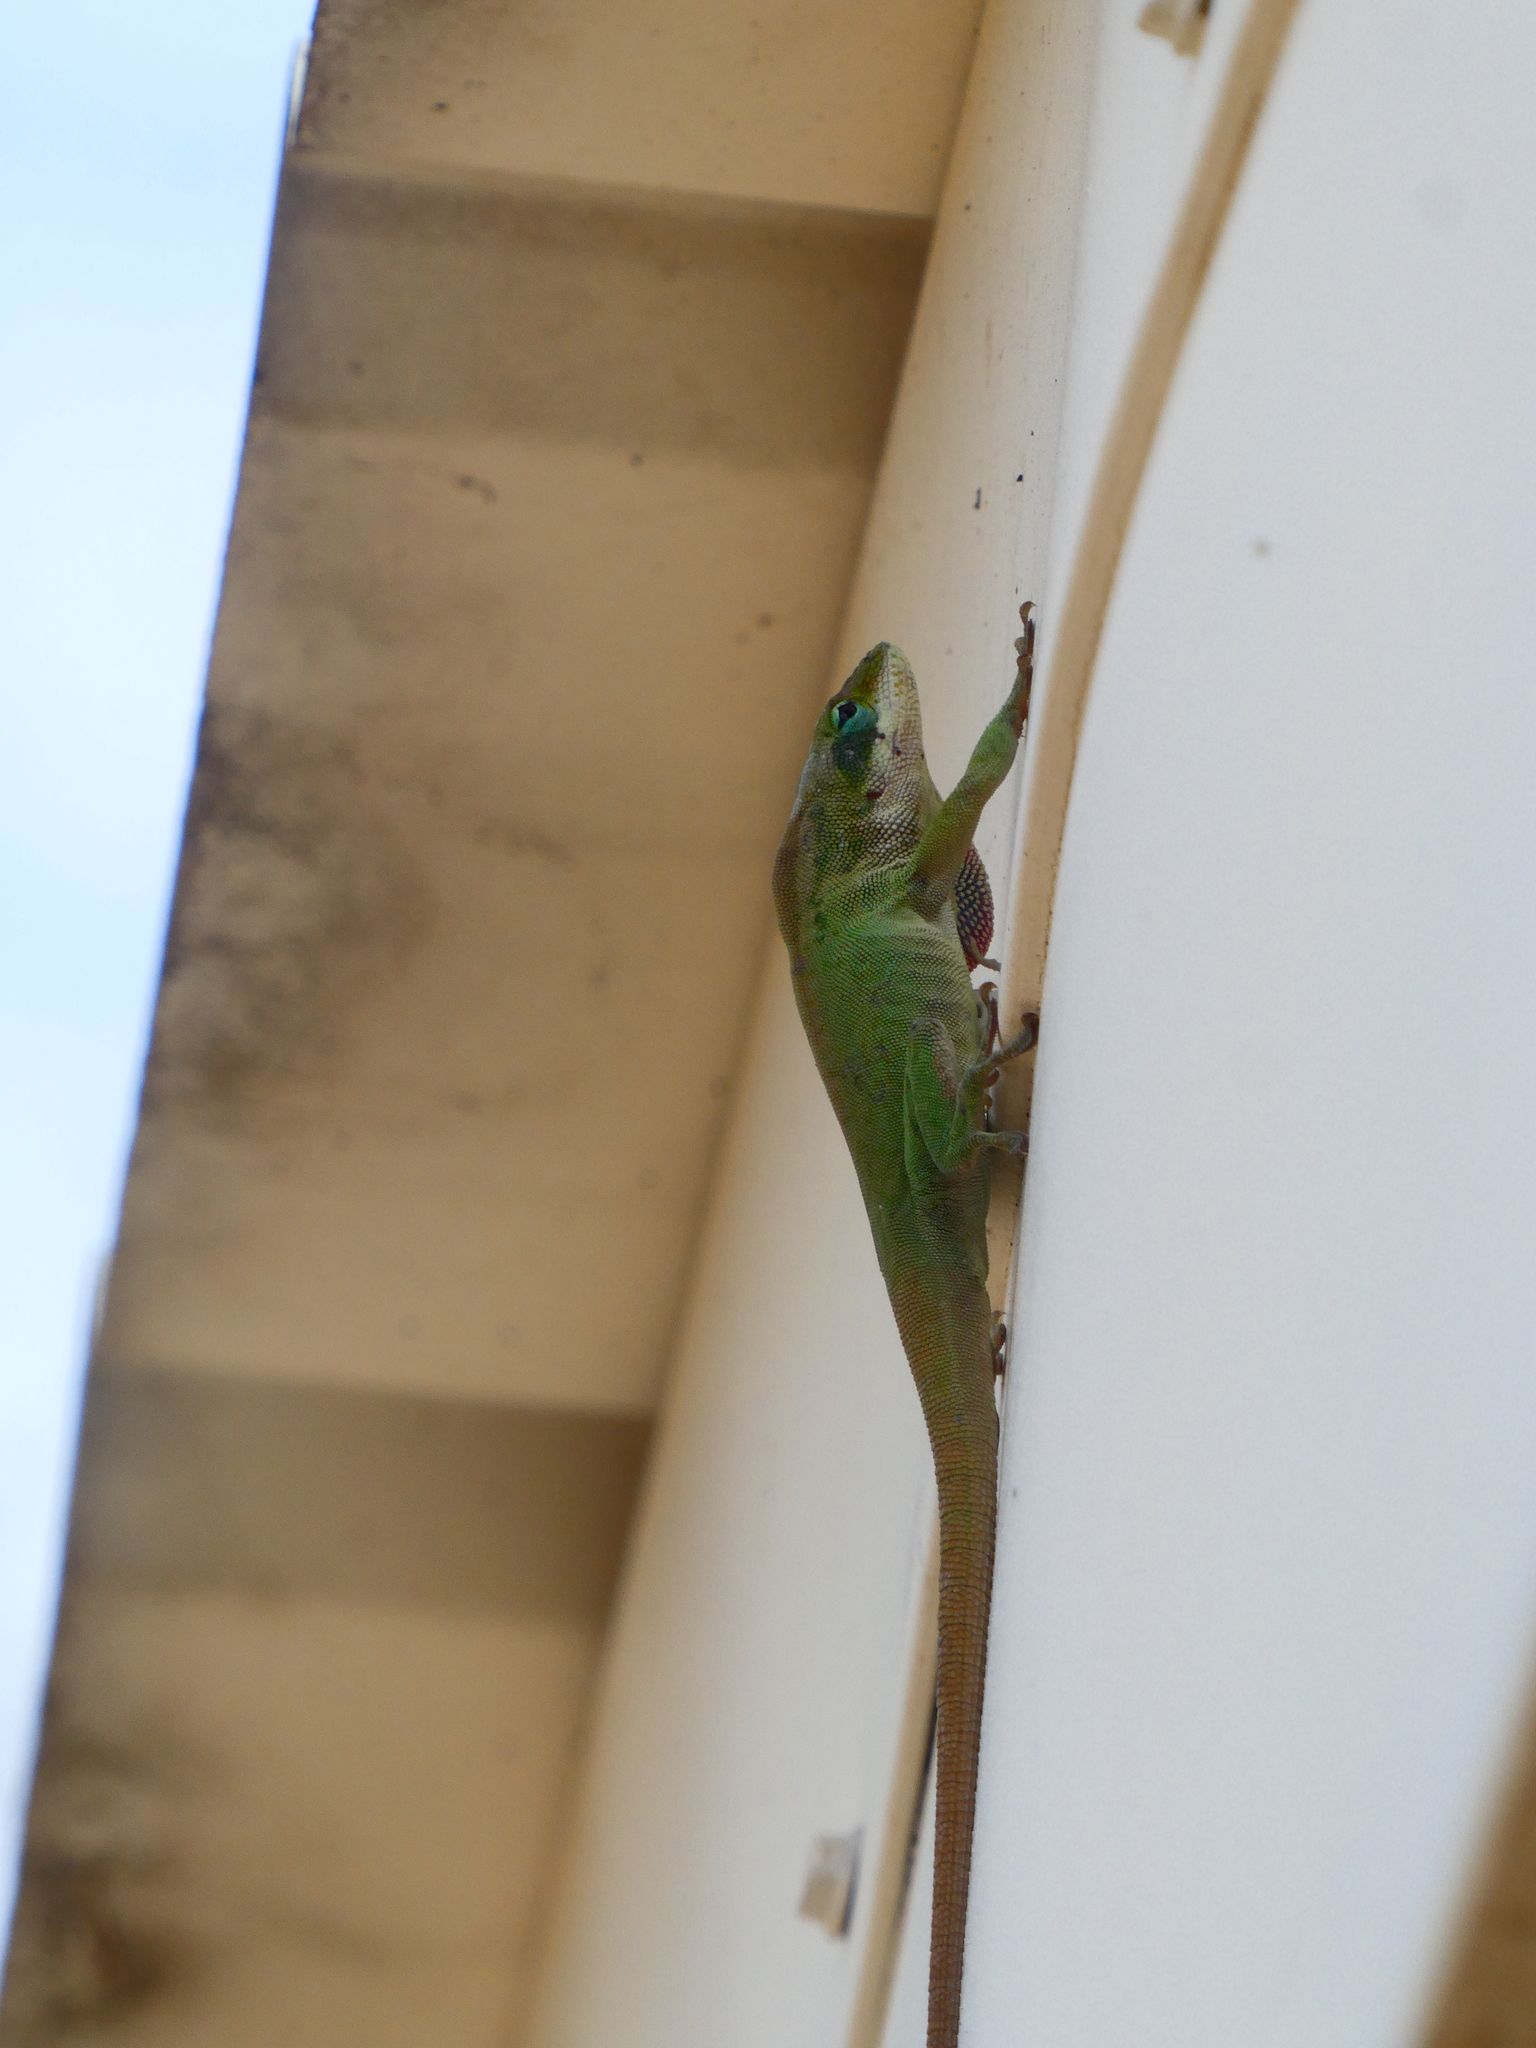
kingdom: Animalia
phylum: Chordata
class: Squamata
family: Dactyloidae
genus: Anolis
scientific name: Anolis carolinensis
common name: Green anole
